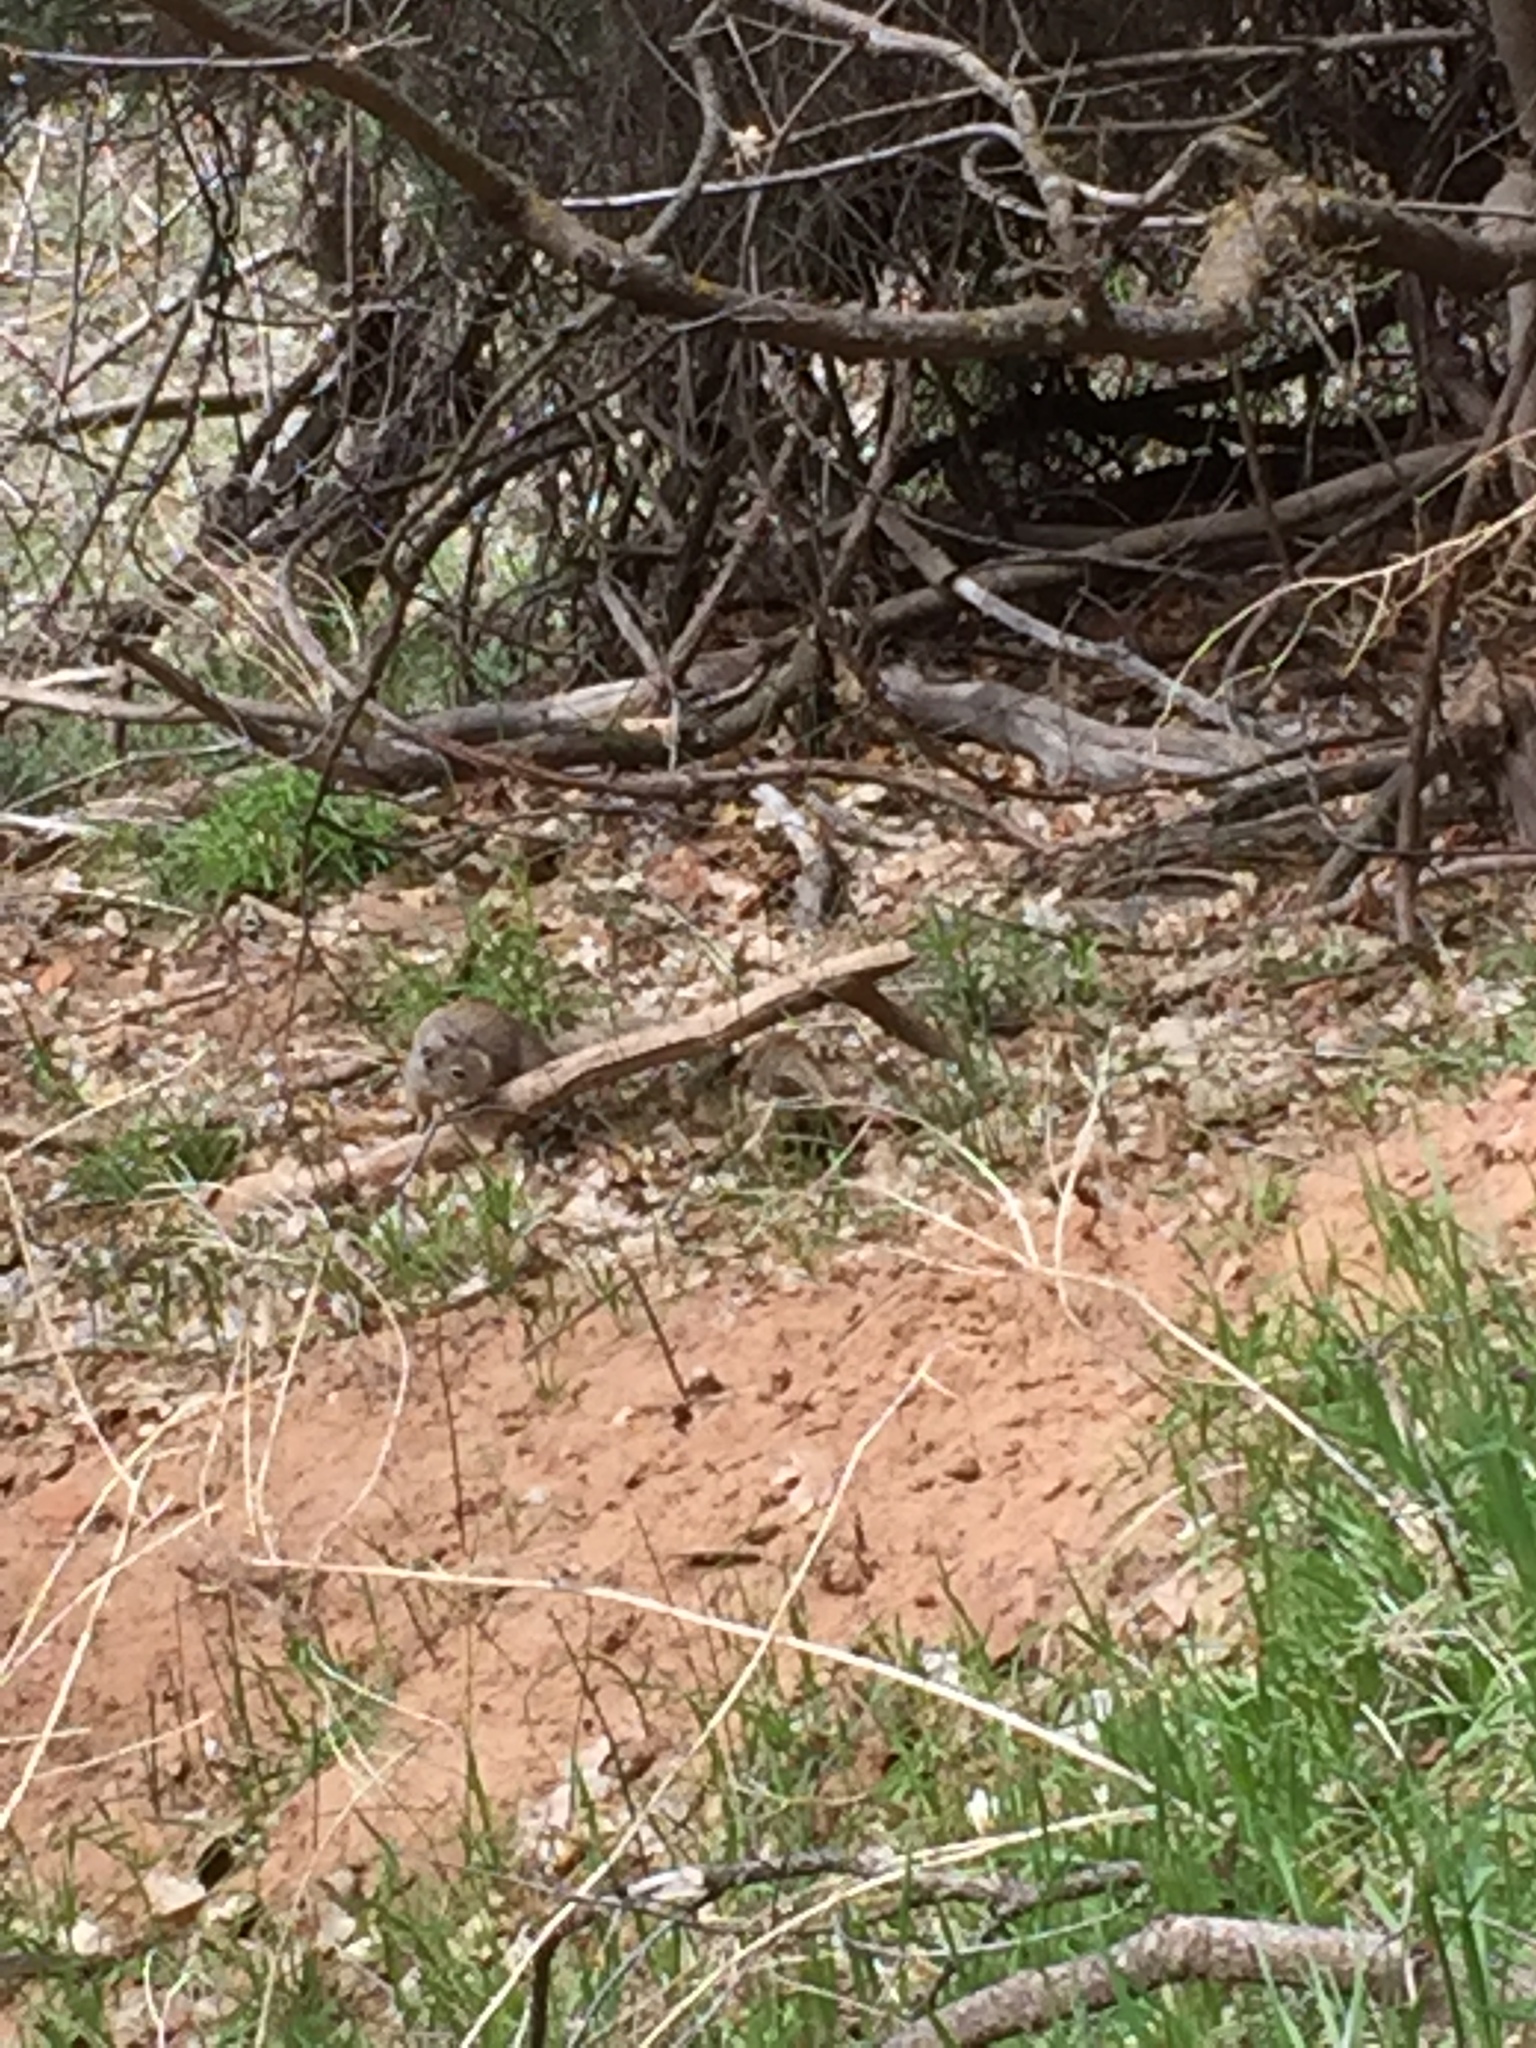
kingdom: Animalia
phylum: Chordata
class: Mammalia
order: Rodentia
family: Sciuridae
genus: Otospermophilus
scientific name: Otospermophilus variegatus
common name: Rock squirrel
